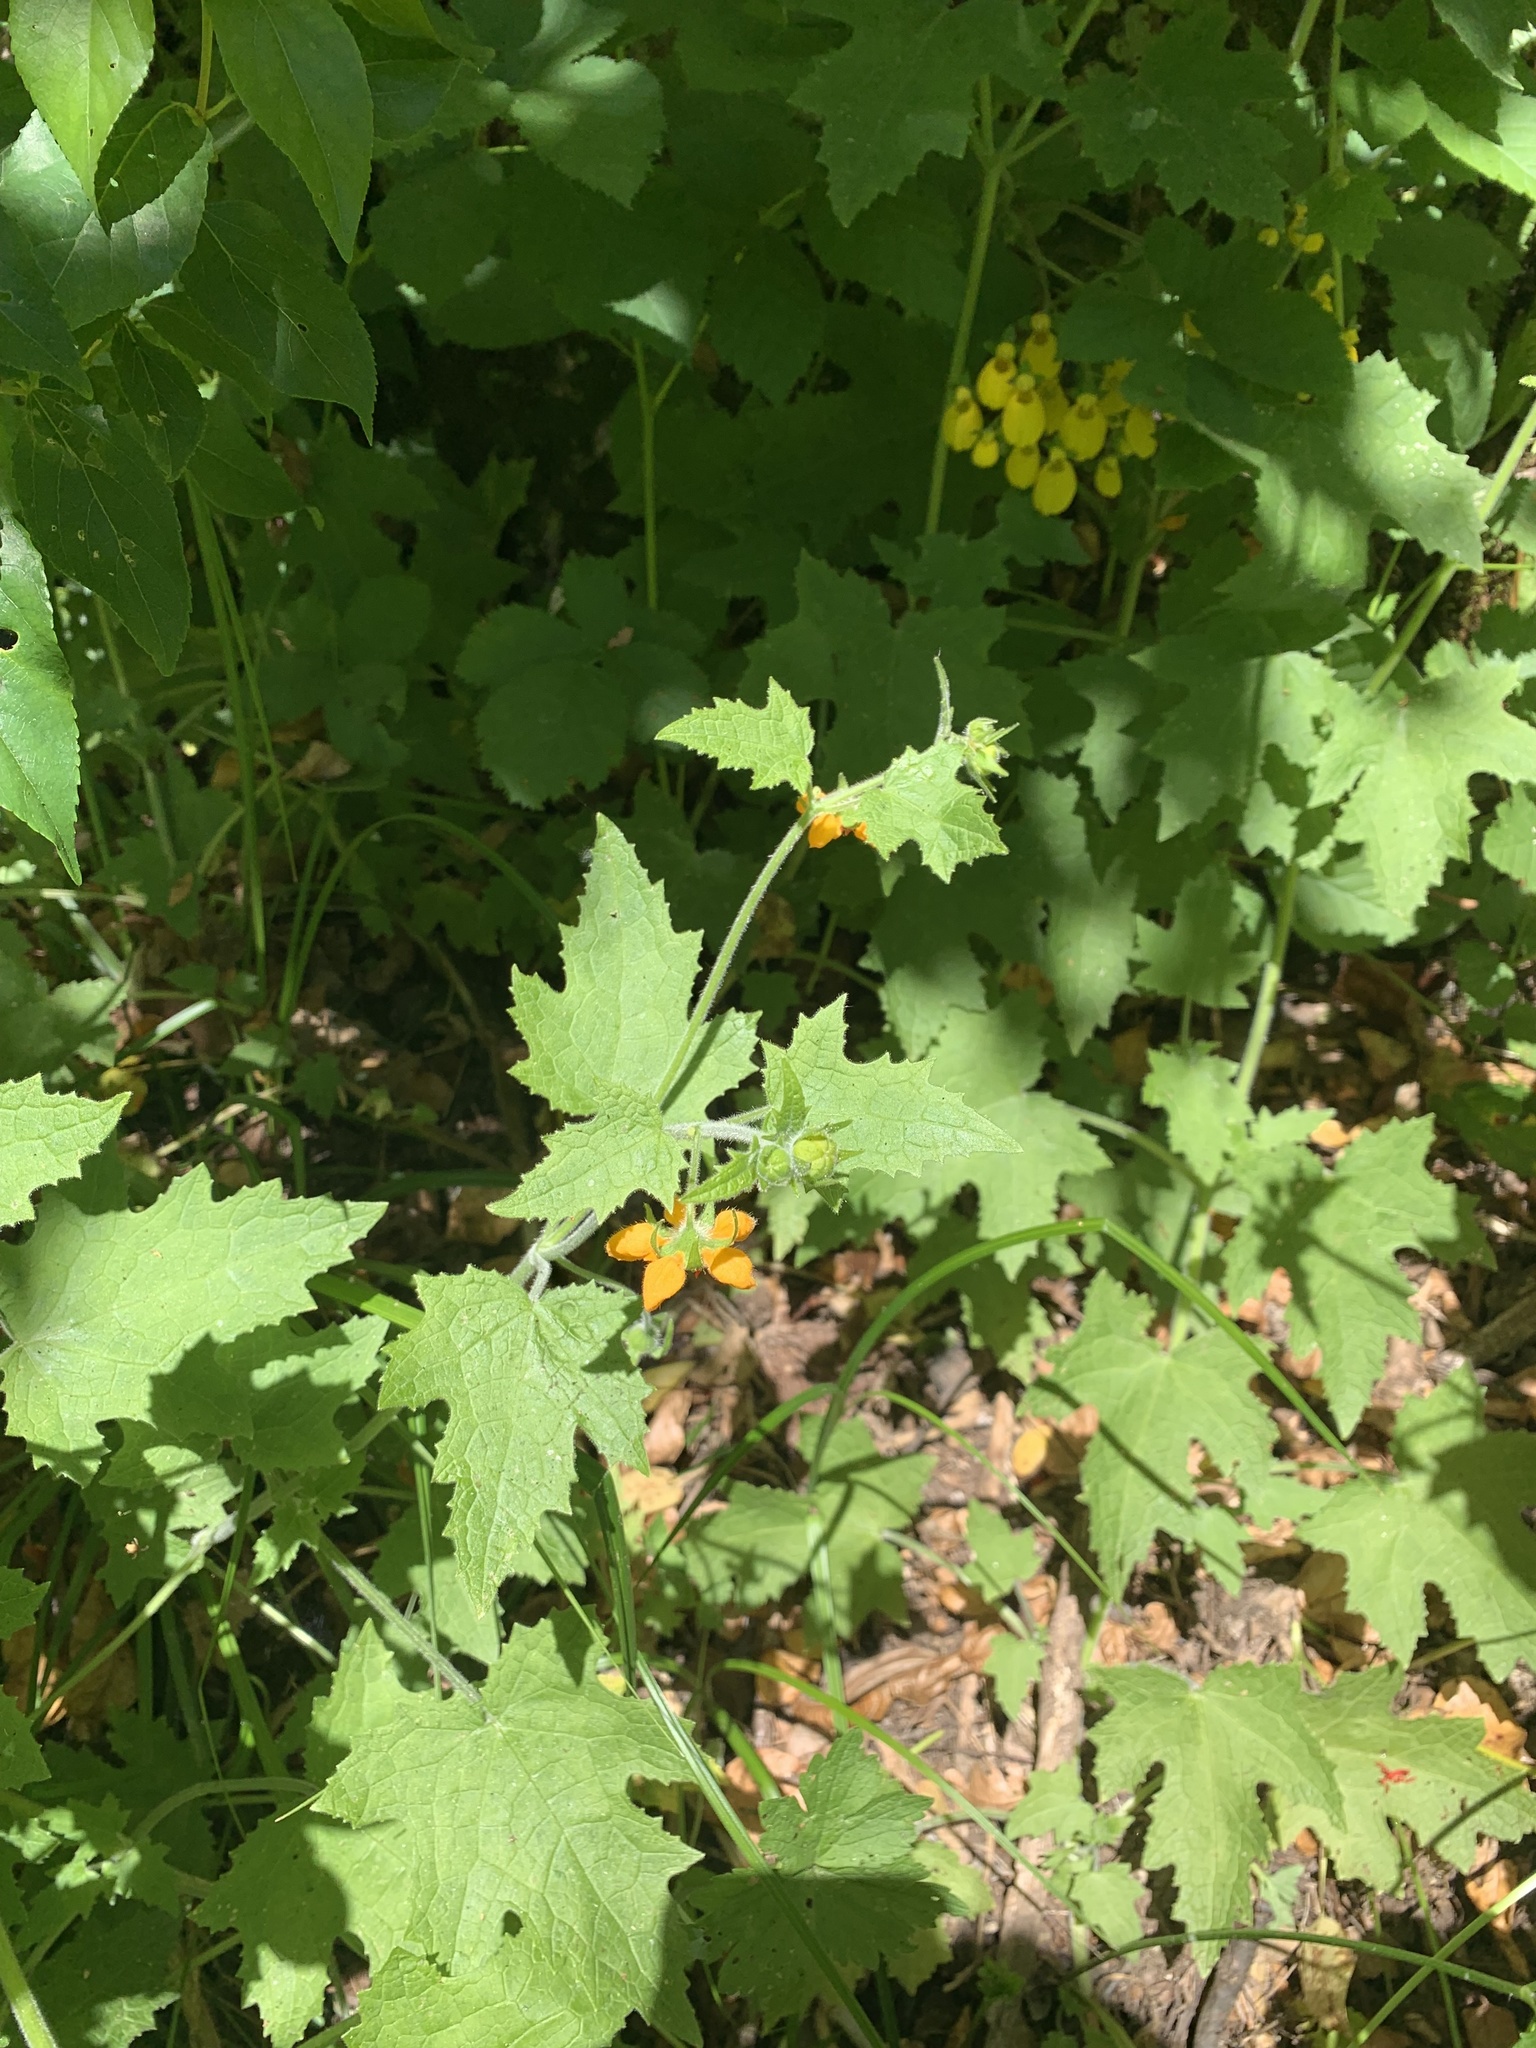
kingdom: Plantae
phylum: Tracheophyta
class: Magnoliopsida
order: Cornales
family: Loasaceae
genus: Loasa
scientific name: Loasa acerifolia
